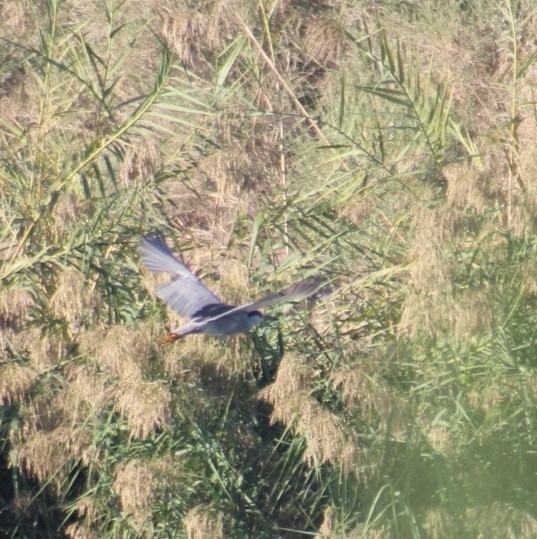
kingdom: Animalia
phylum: Chordata
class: Aves
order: Pelecaniformes
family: Ardeidae
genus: Nycticorax
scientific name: Nycticorax nycticorax
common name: Black-crowned night heron
